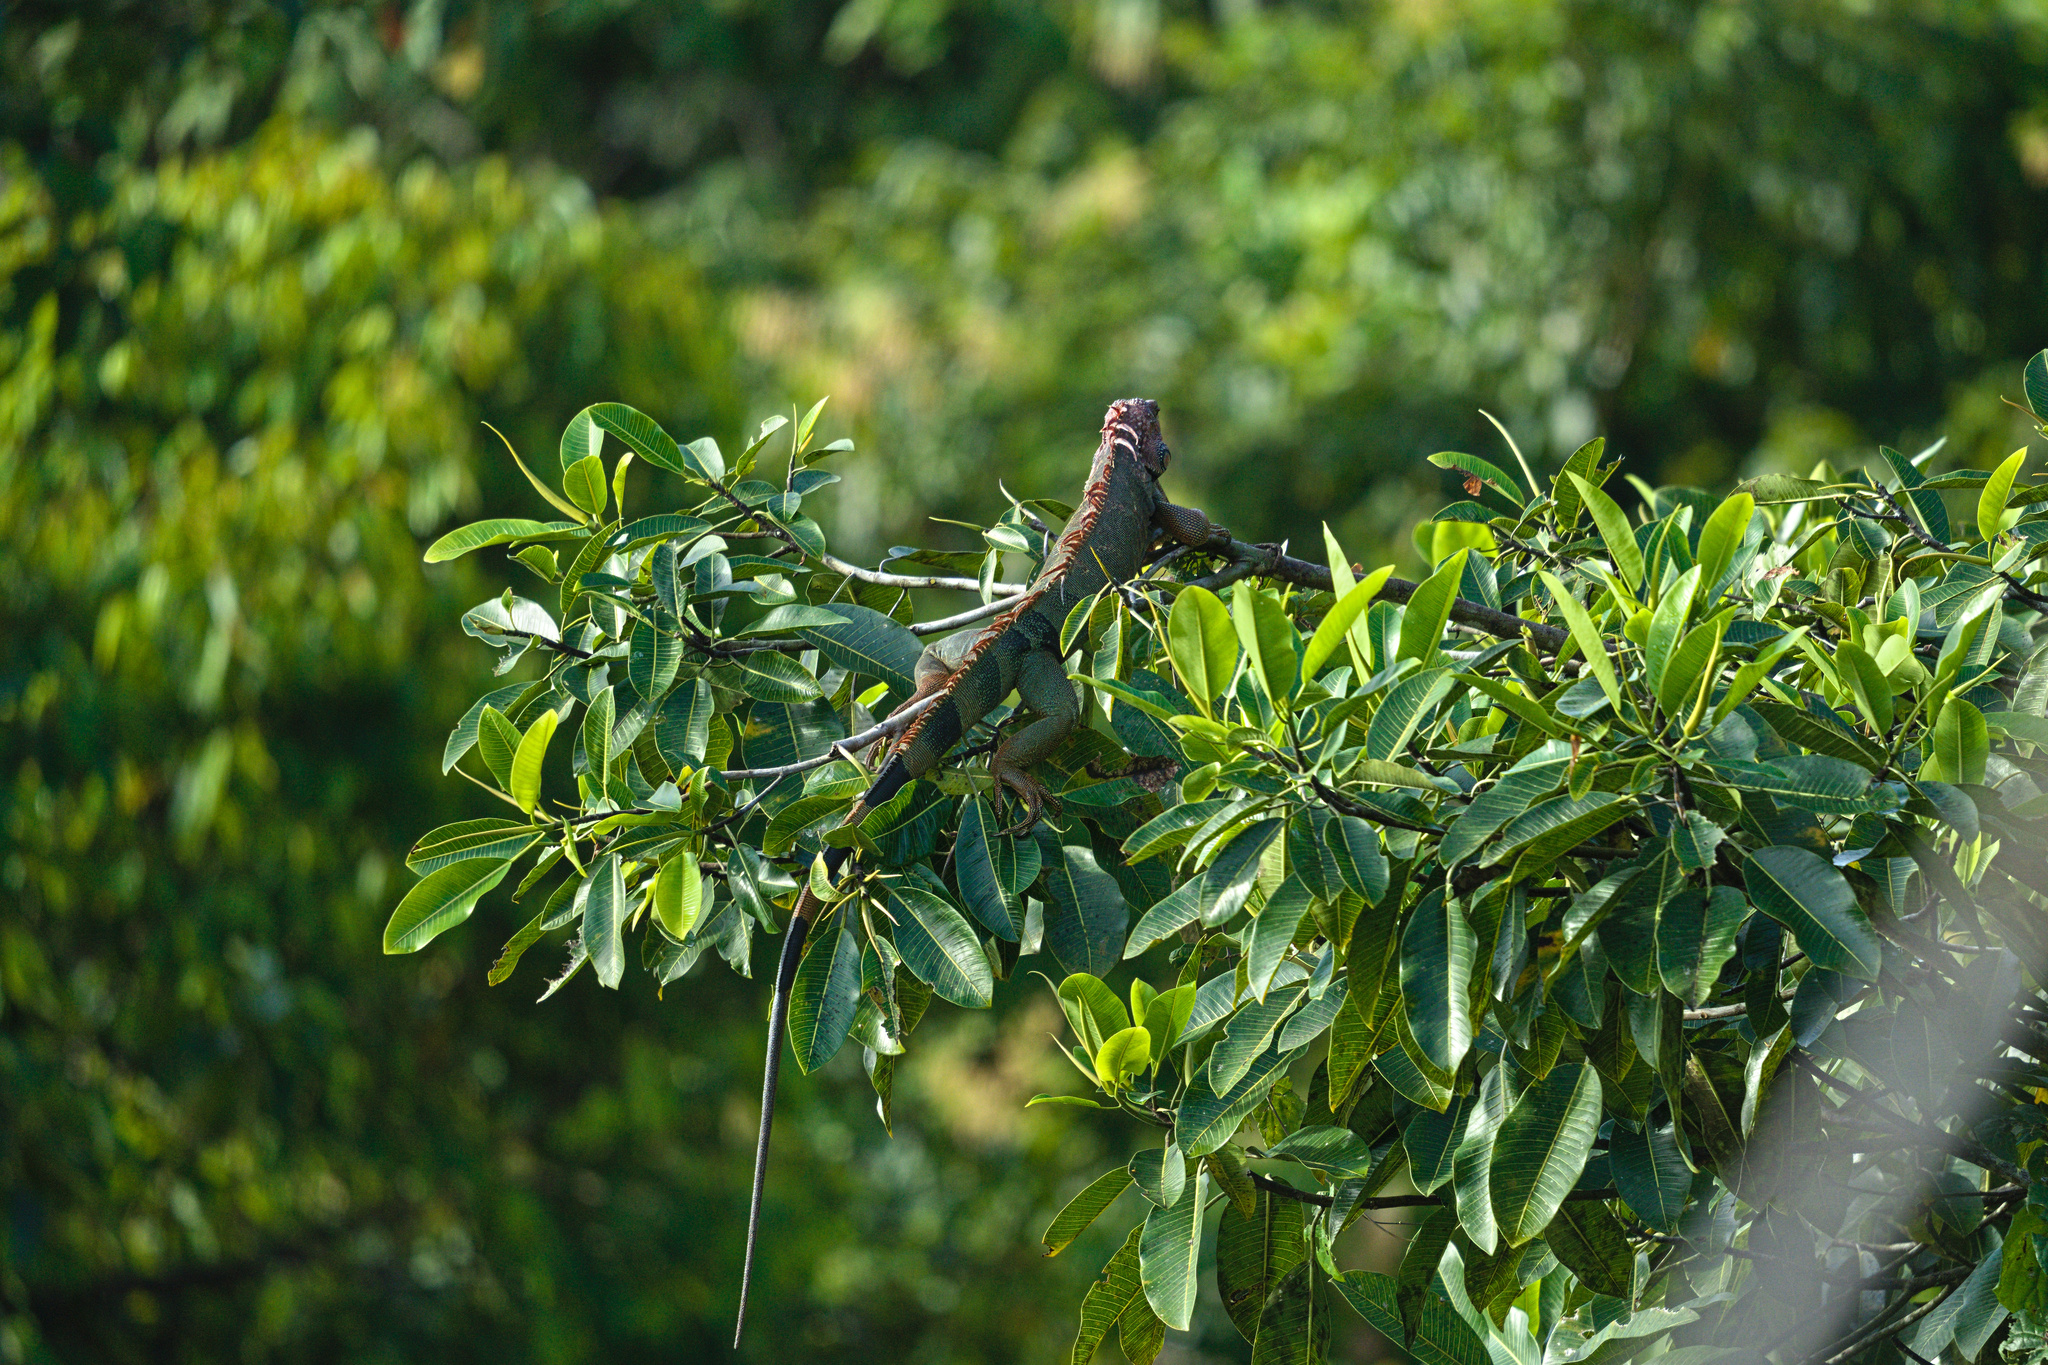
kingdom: Animalia
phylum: Chordata
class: Squamata
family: Iguanidae
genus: Iguana
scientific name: Iguana iguana
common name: Green iguana
